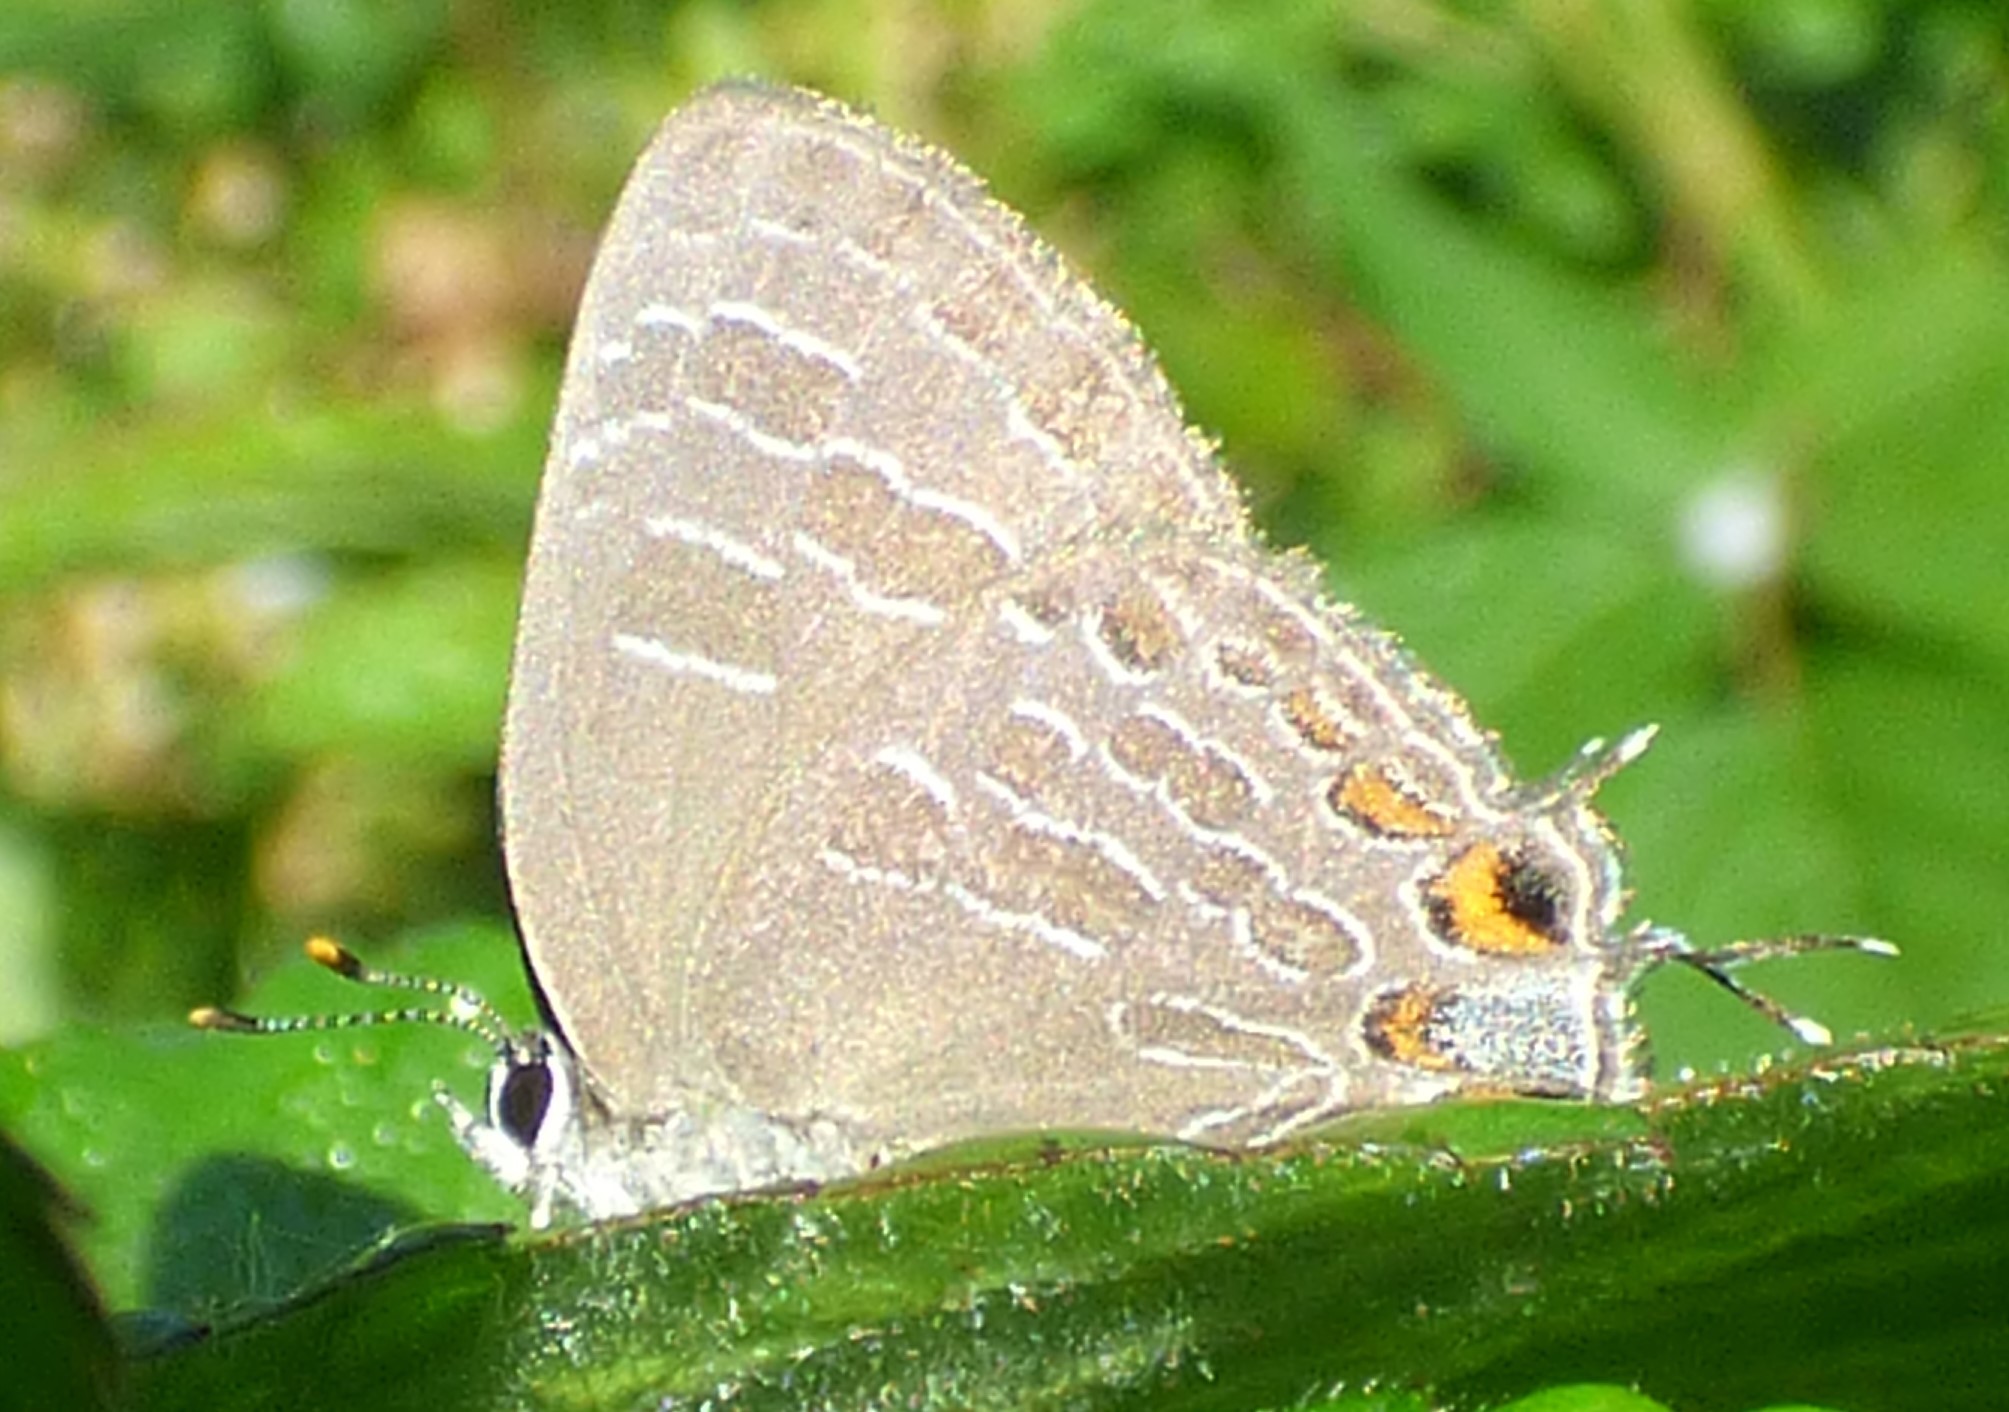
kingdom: Animalia
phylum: Arthropoda
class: Insecta
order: Lepidoptera
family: Lycaenidae
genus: Satyrium
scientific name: Satyrium liparops
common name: Striped hairstreak
